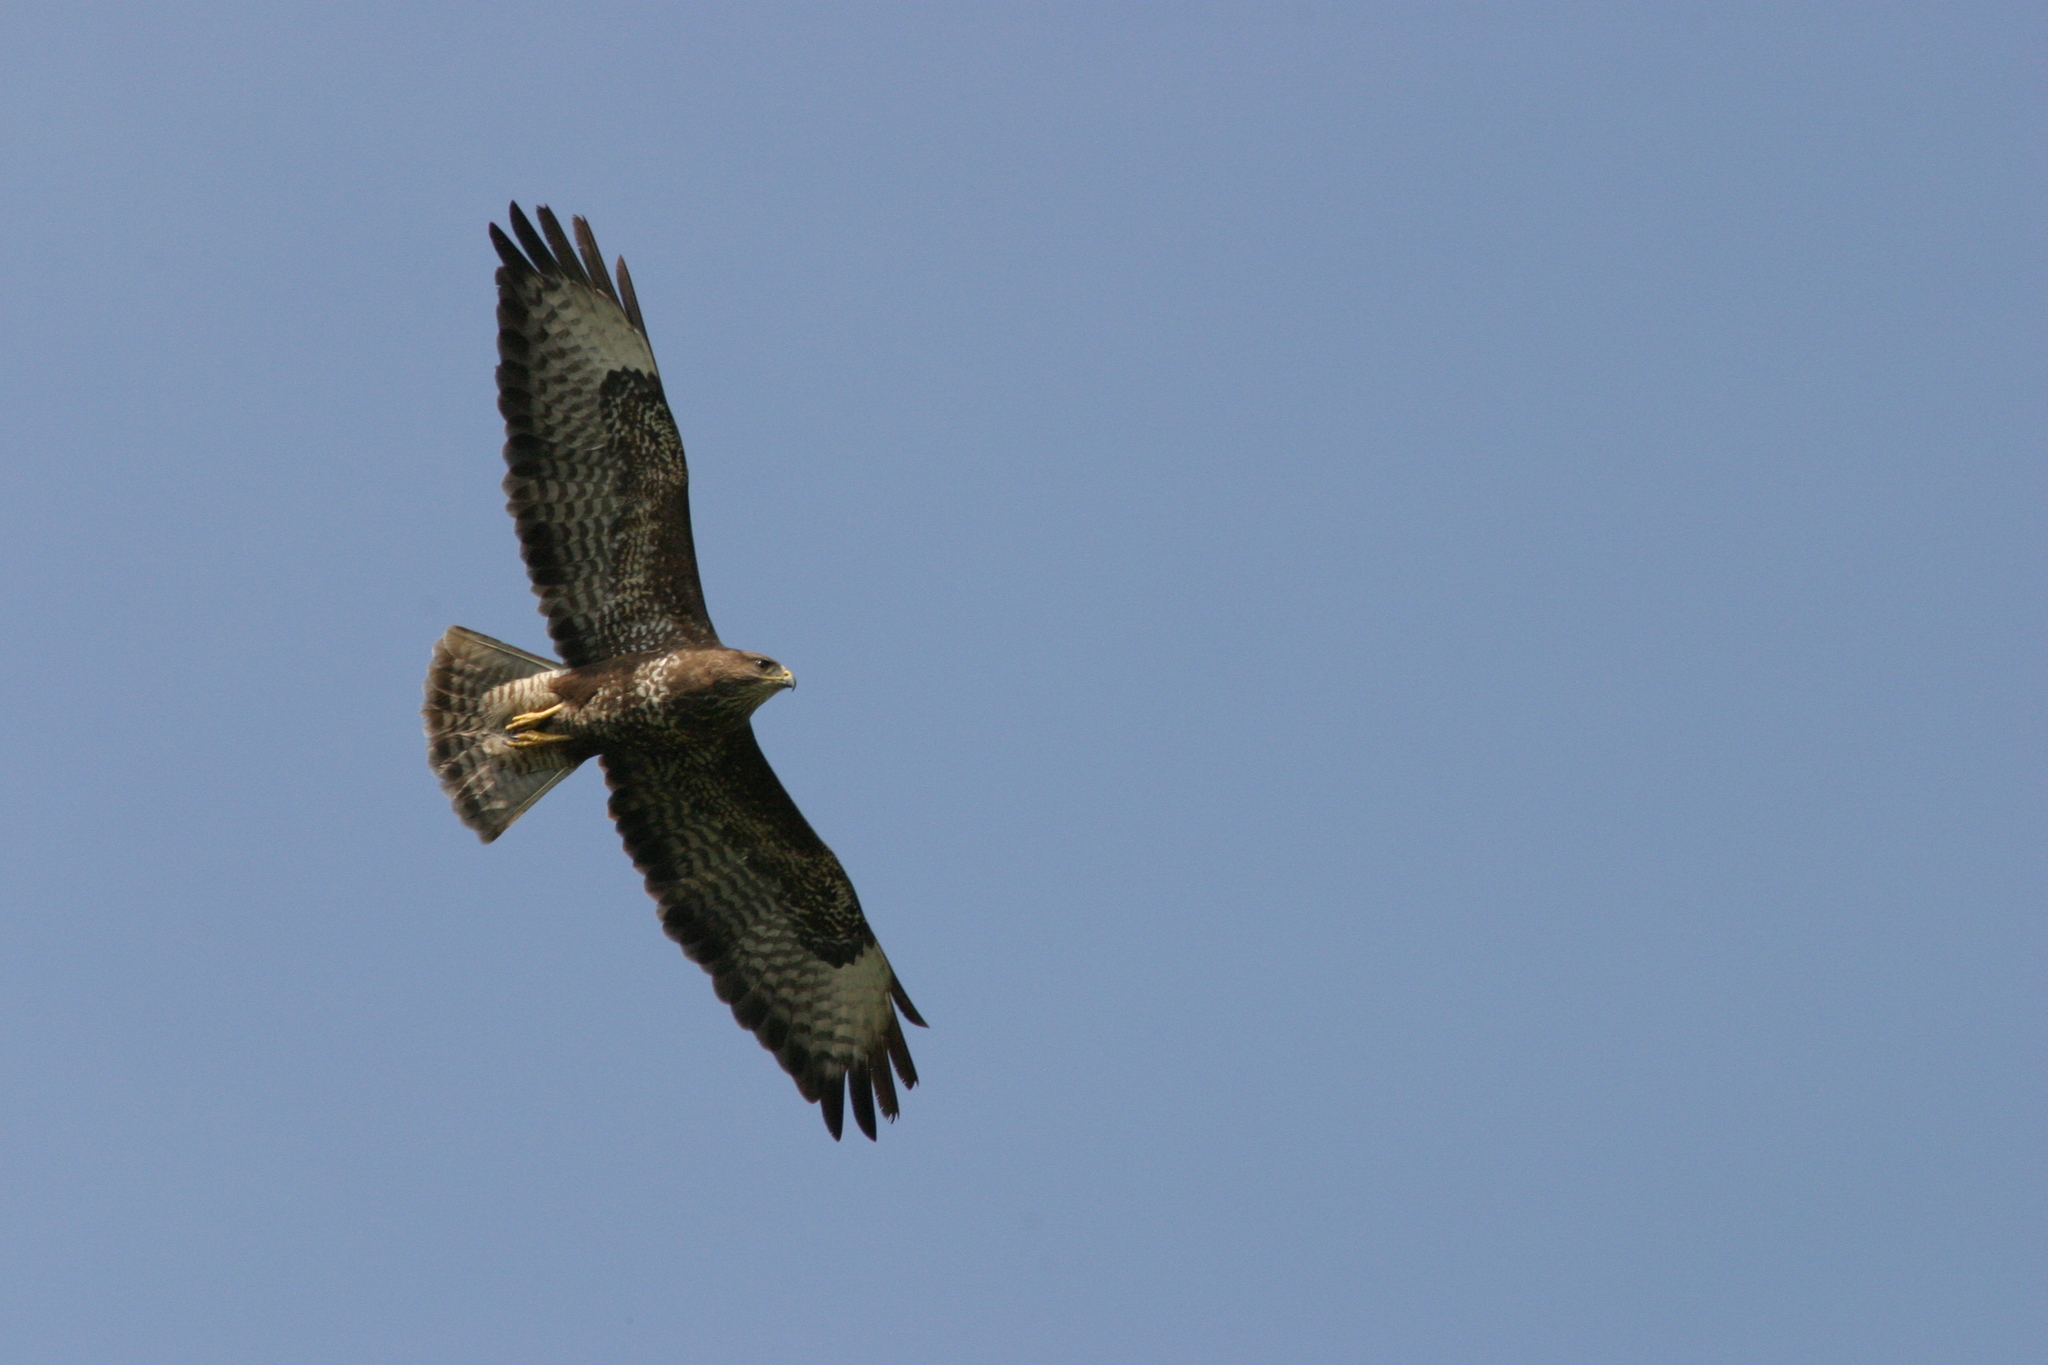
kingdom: Animalia
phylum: Chordata
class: Aves
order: Accipitriformes
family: Accipitridae
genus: Buteo
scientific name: Buteo buteo
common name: Common buzzard
